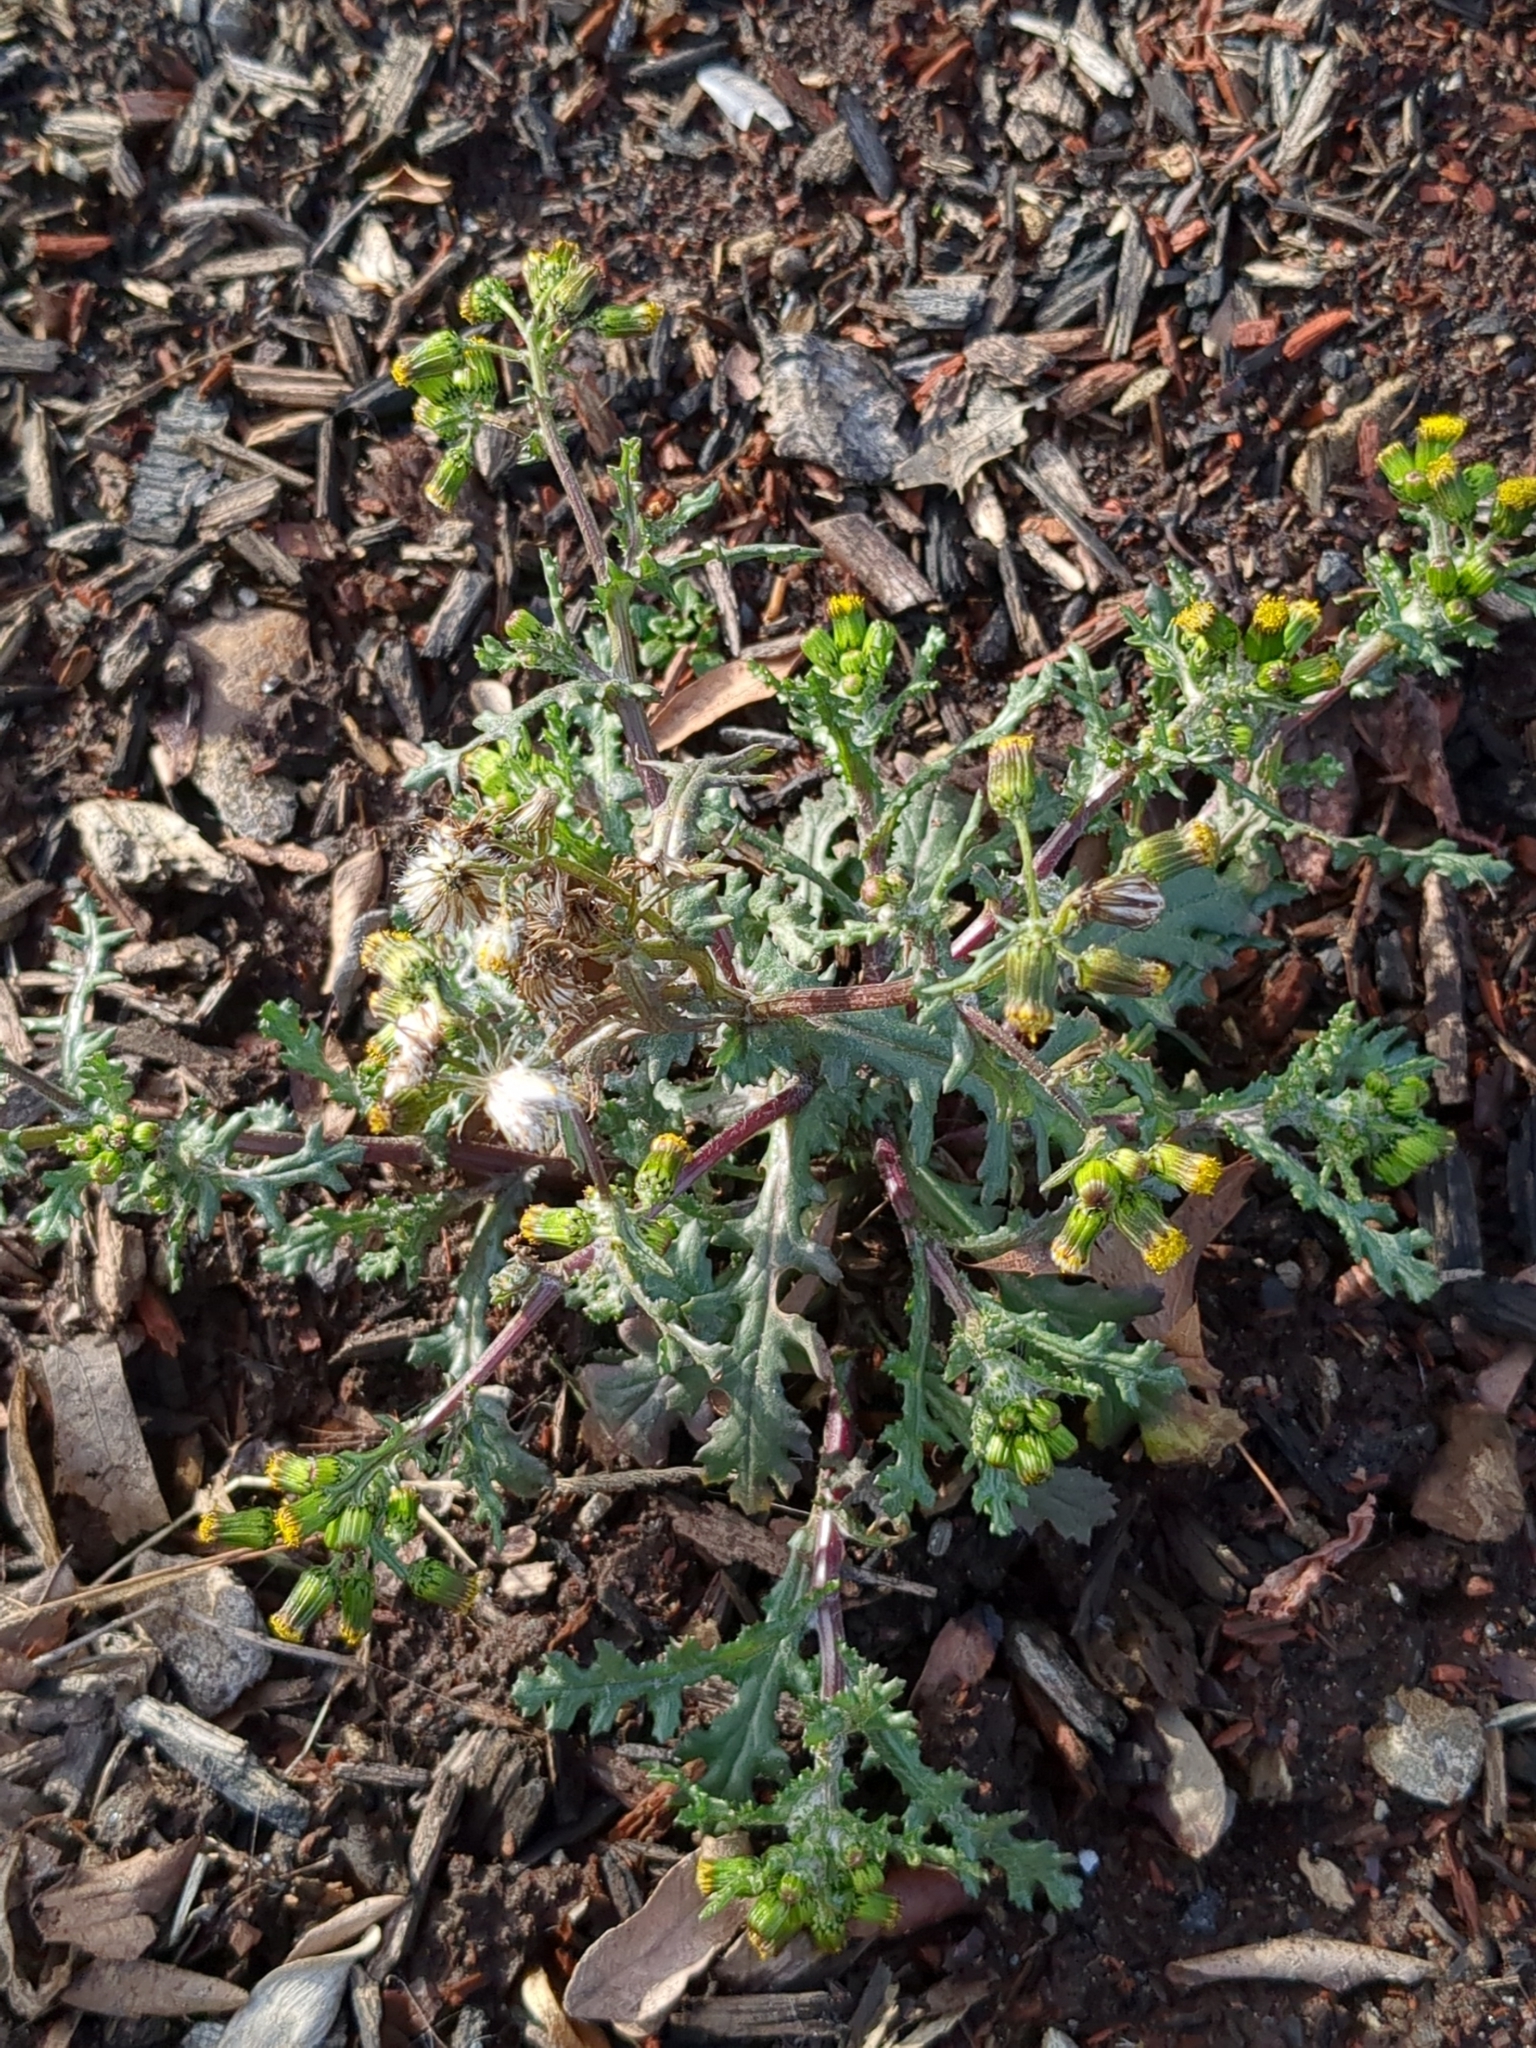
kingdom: Plantae
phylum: Tracheophyta
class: Magnoliopsida
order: Asterales
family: Asteraceae
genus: Senecio
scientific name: Senecio vulgaris
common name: Old-man-in-the-spring
